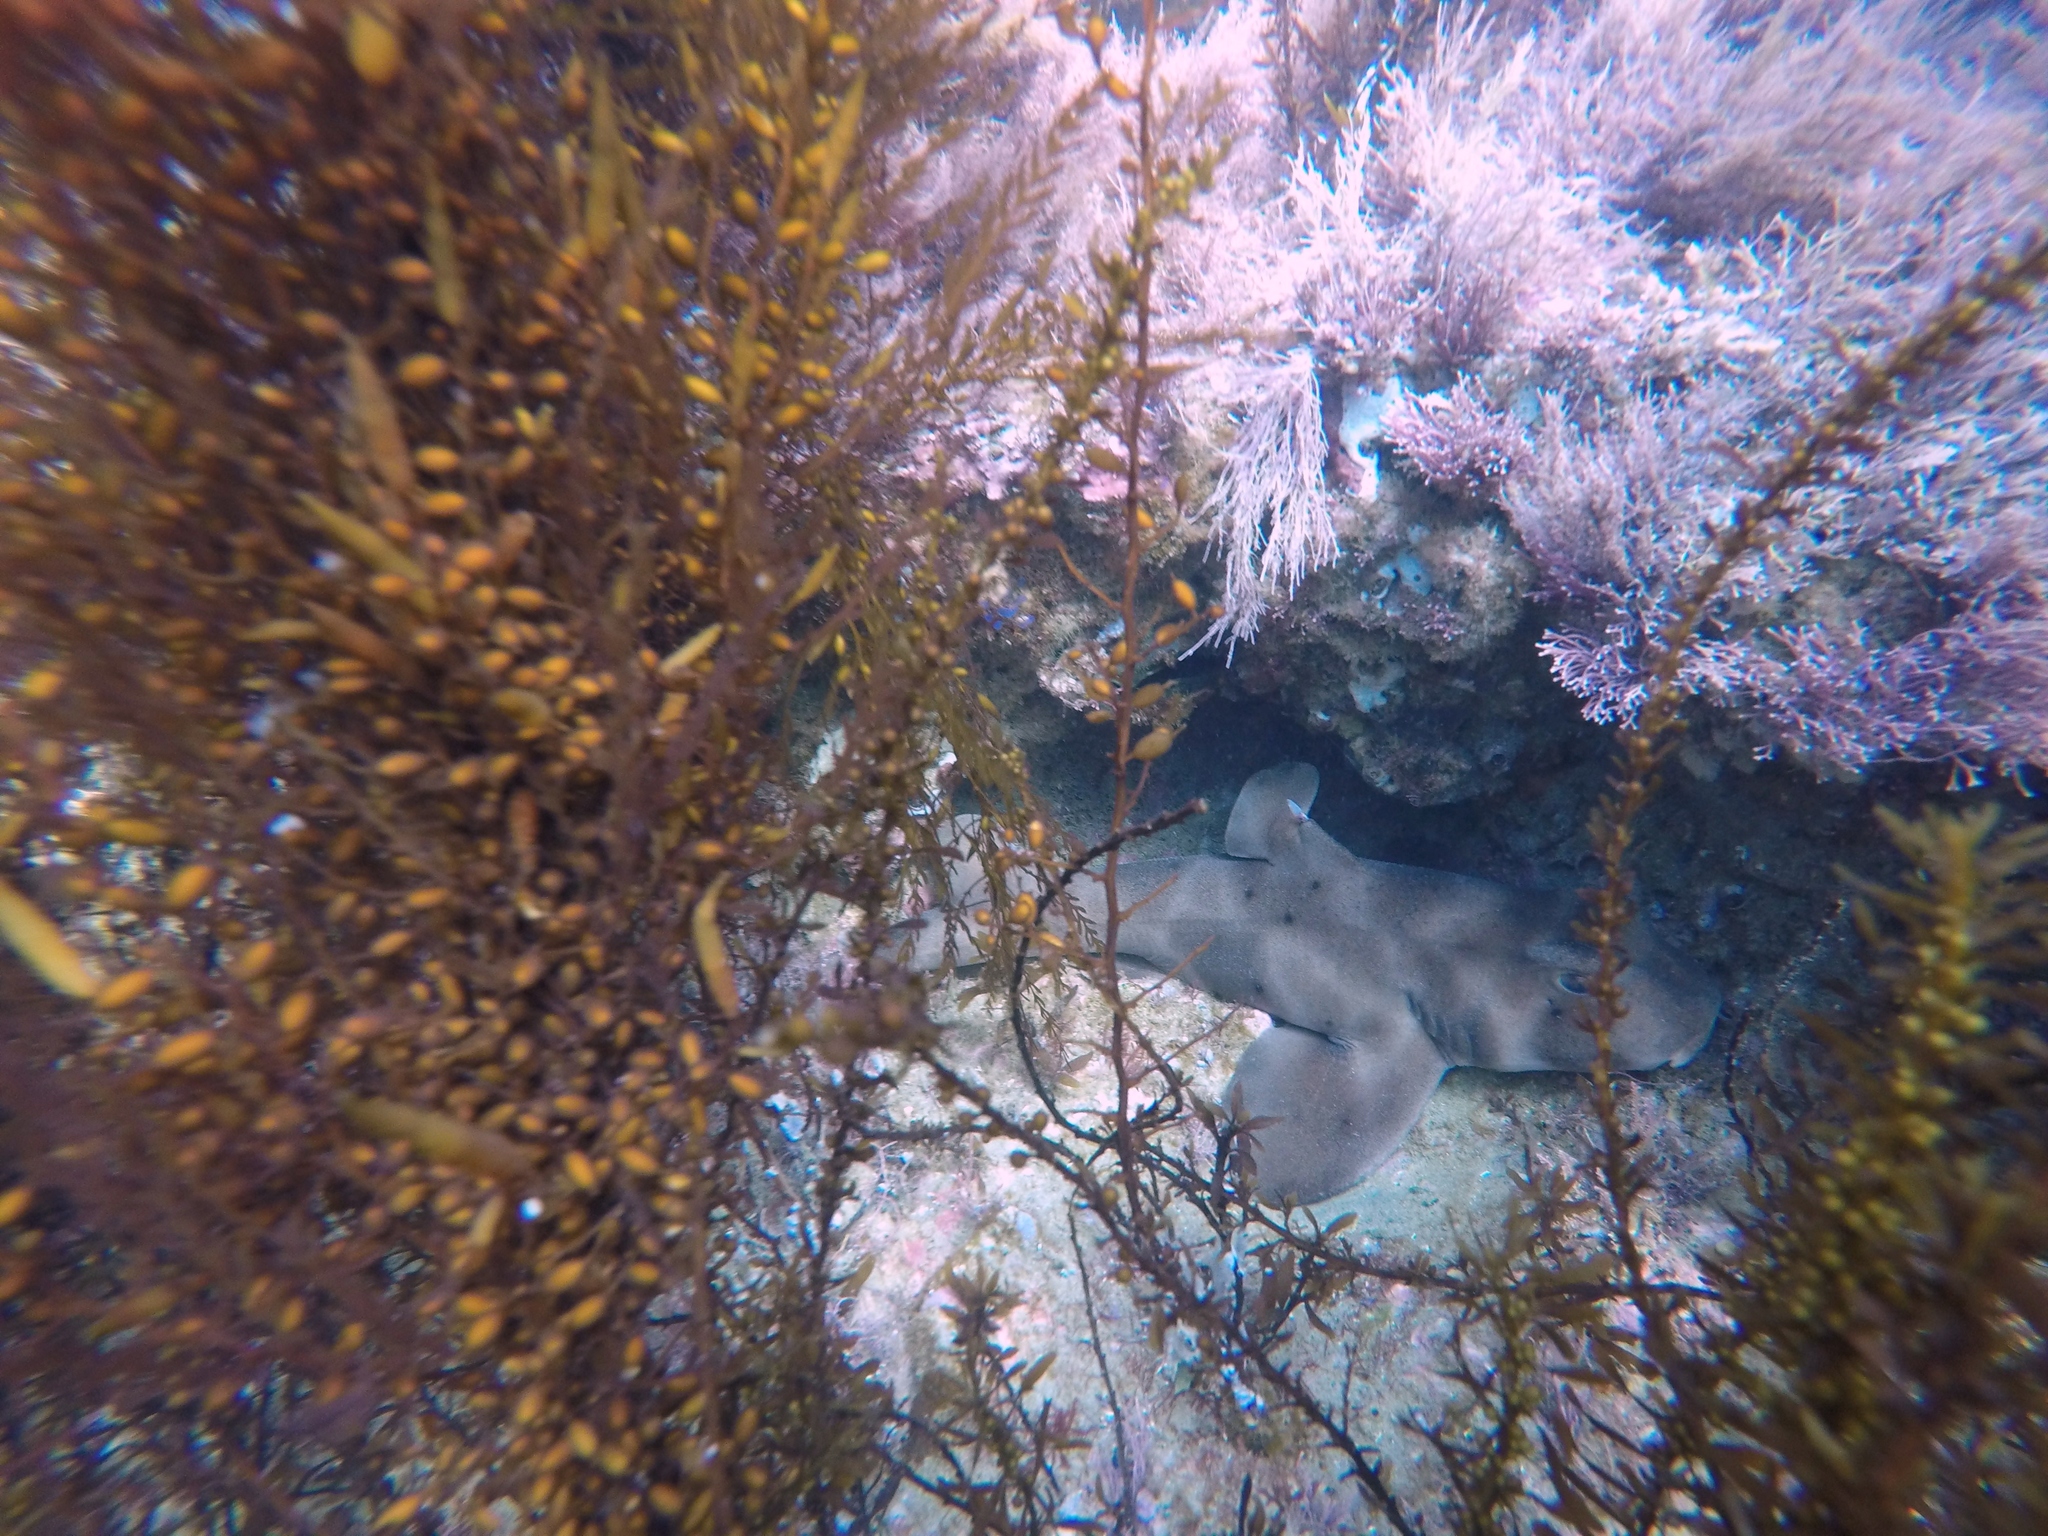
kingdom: Animalia
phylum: Chordata
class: Elasmobranchii
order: Heterodontiformes
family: Heterodontidae
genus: Heterodontus
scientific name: Heterodontus francisci
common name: Horn shark
